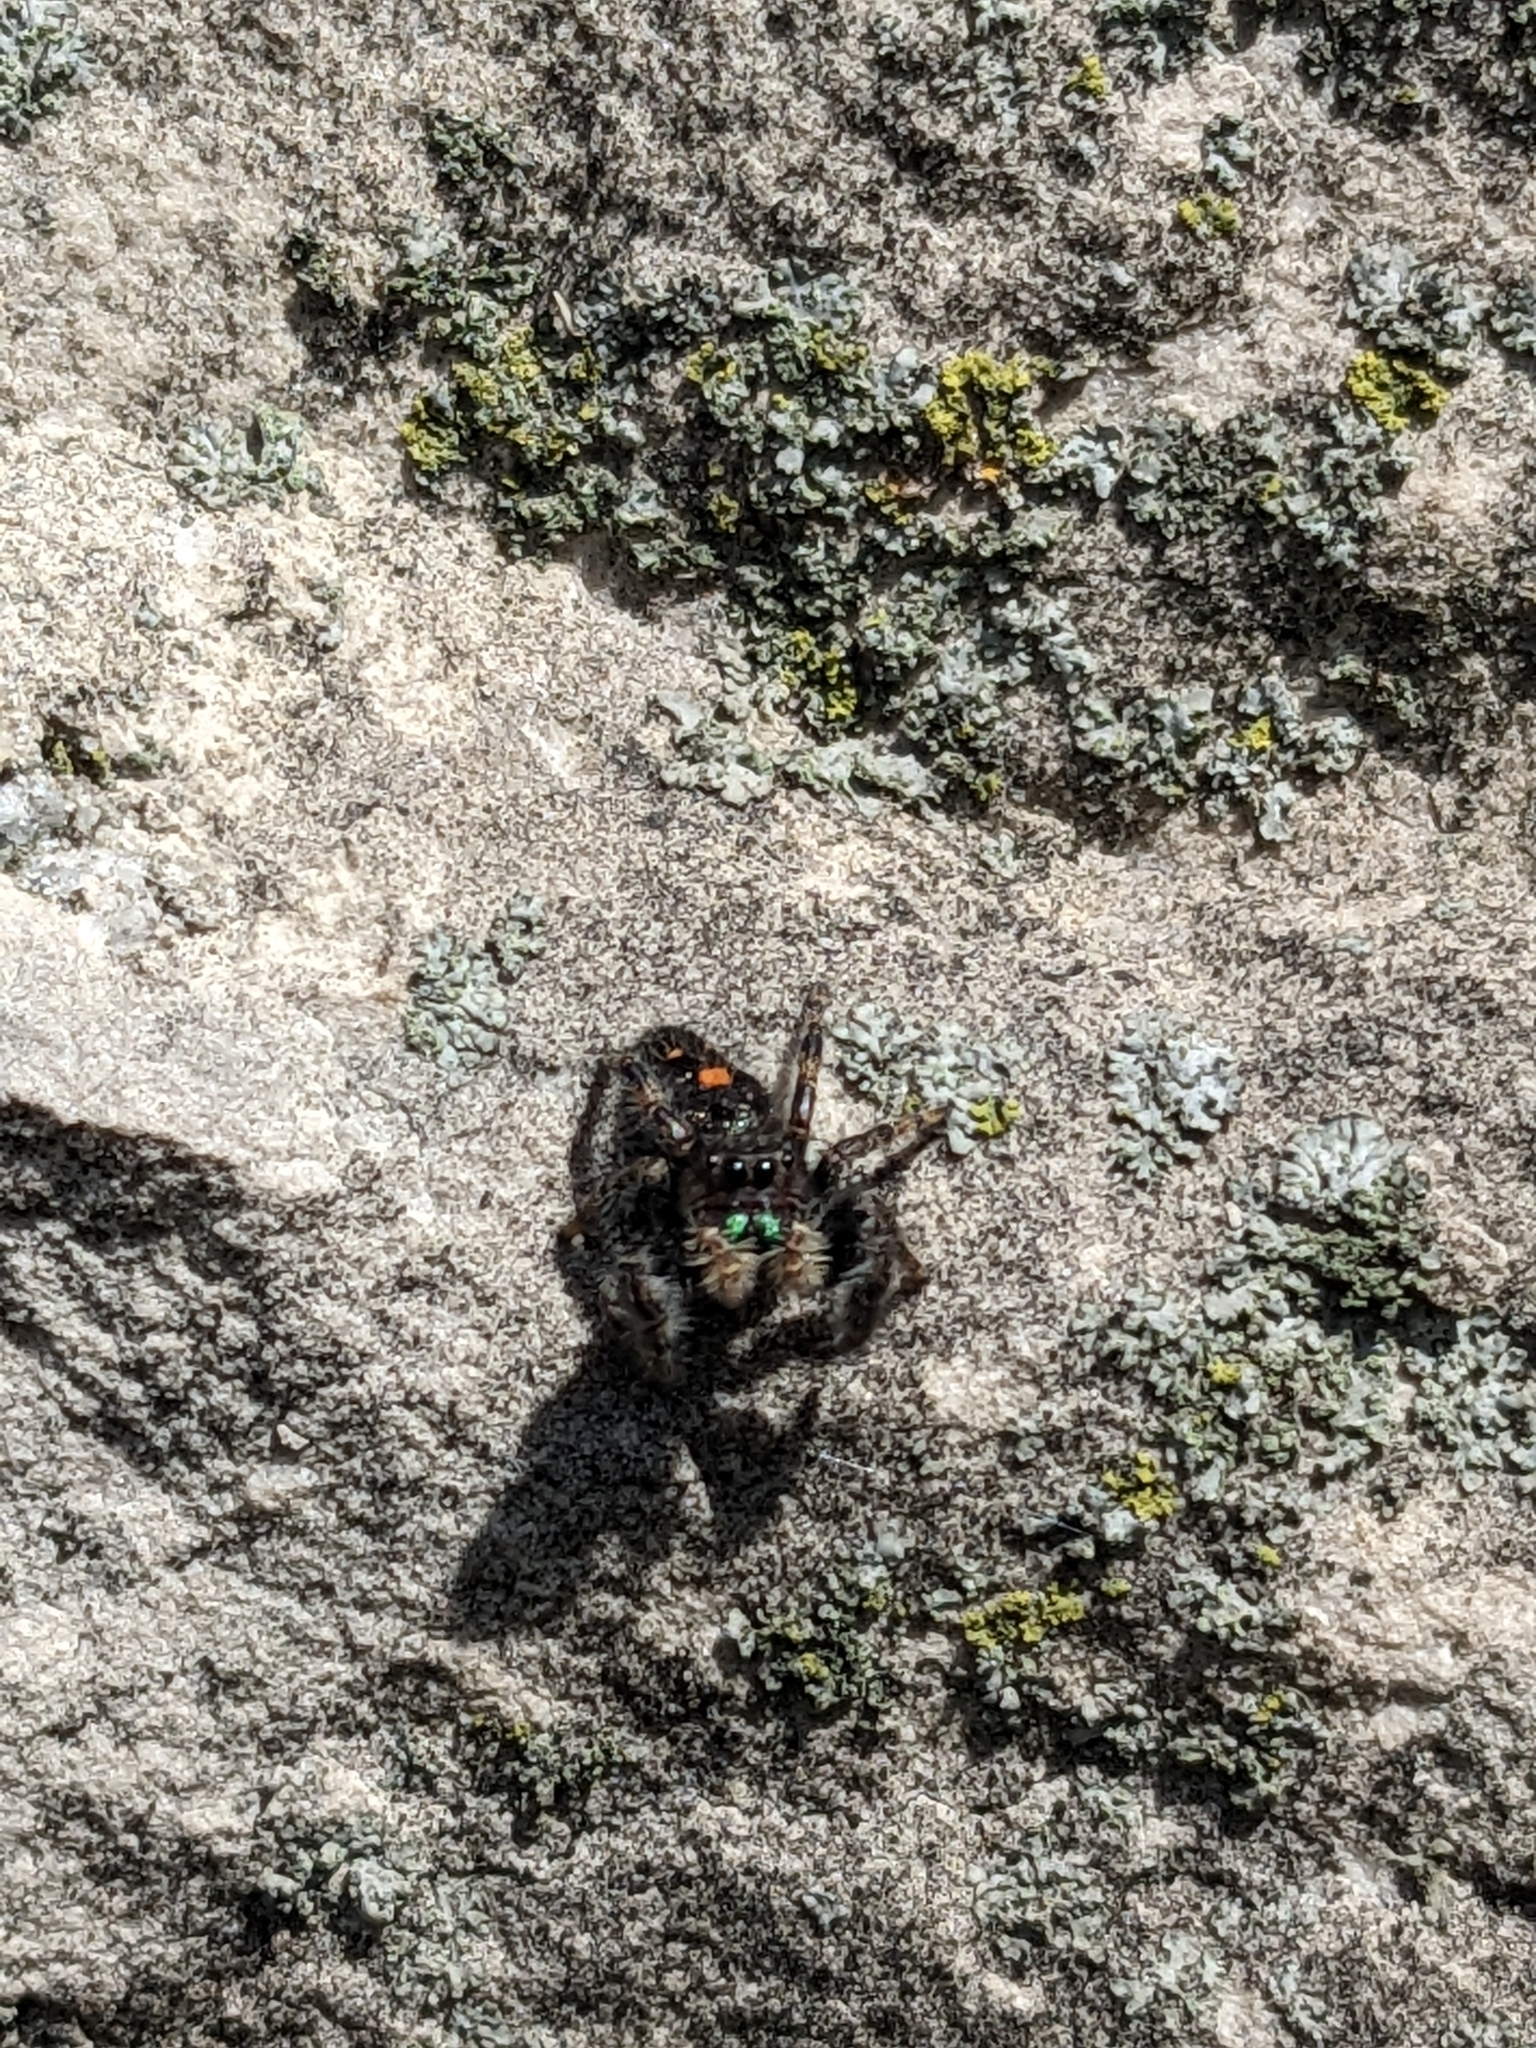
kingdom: Animalia
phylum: Arthropoda
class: Arachnida
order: Araneae
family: Salticidae
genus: Phidippus
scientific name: Phidippus audax
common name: Bold jumper
